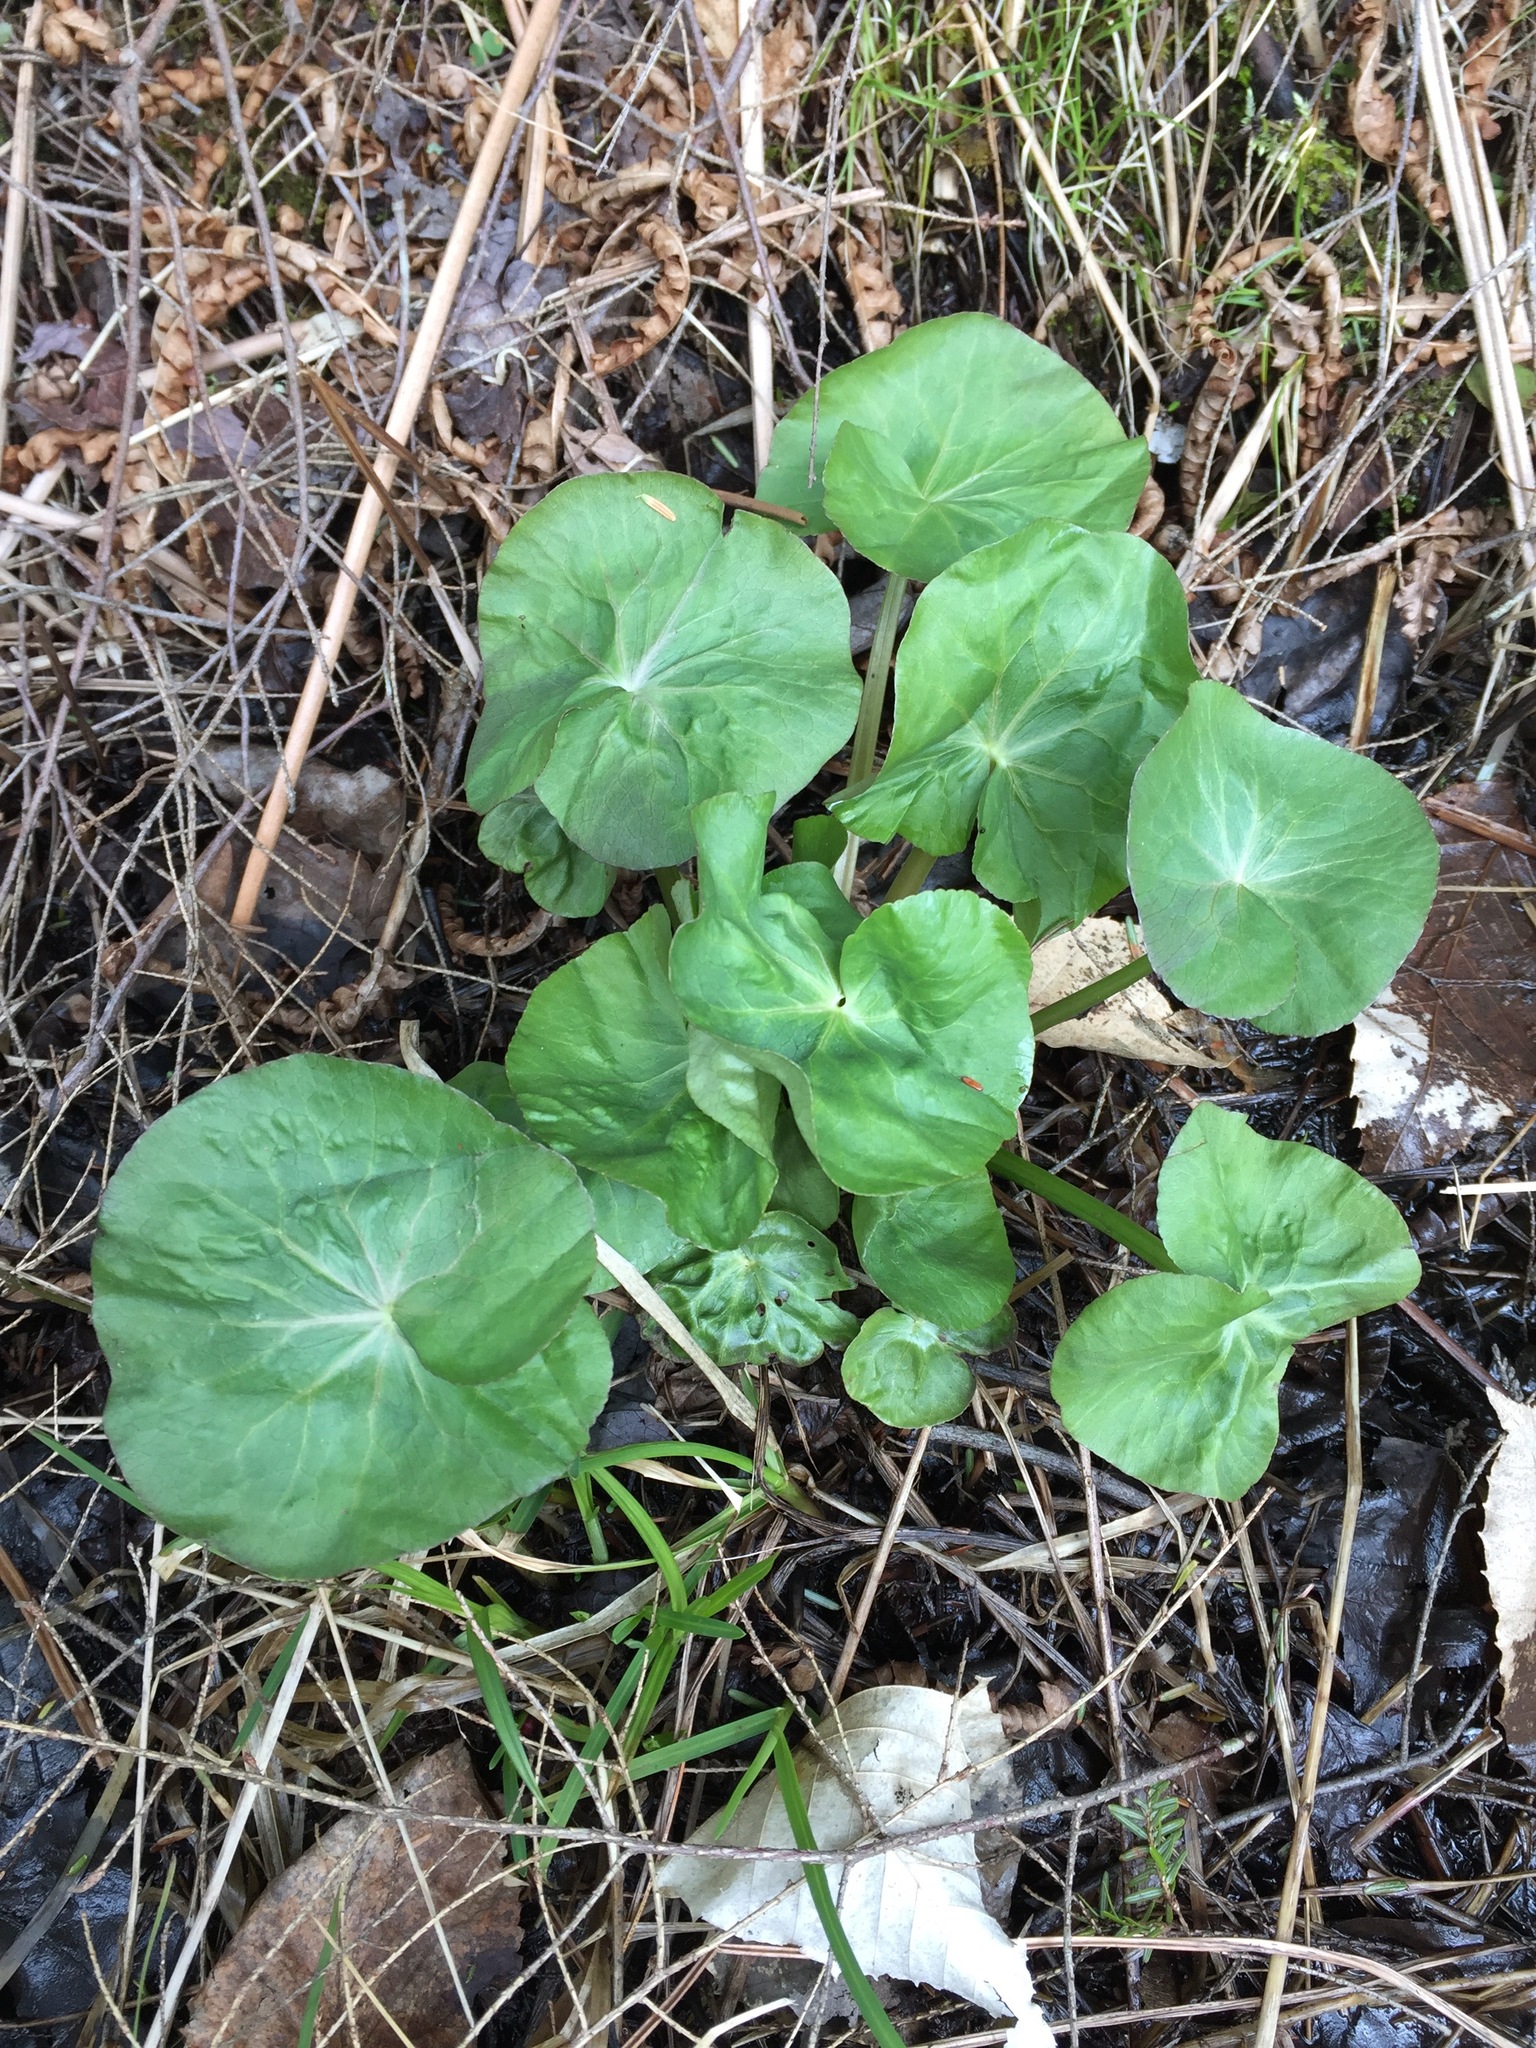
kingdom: Plantae
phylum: Tracheophyta
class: Magnoliopsida
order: Ranunculales
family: Ranunculaceae
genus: Caltha
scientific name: Caltha palustris
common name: Marsh marigold
